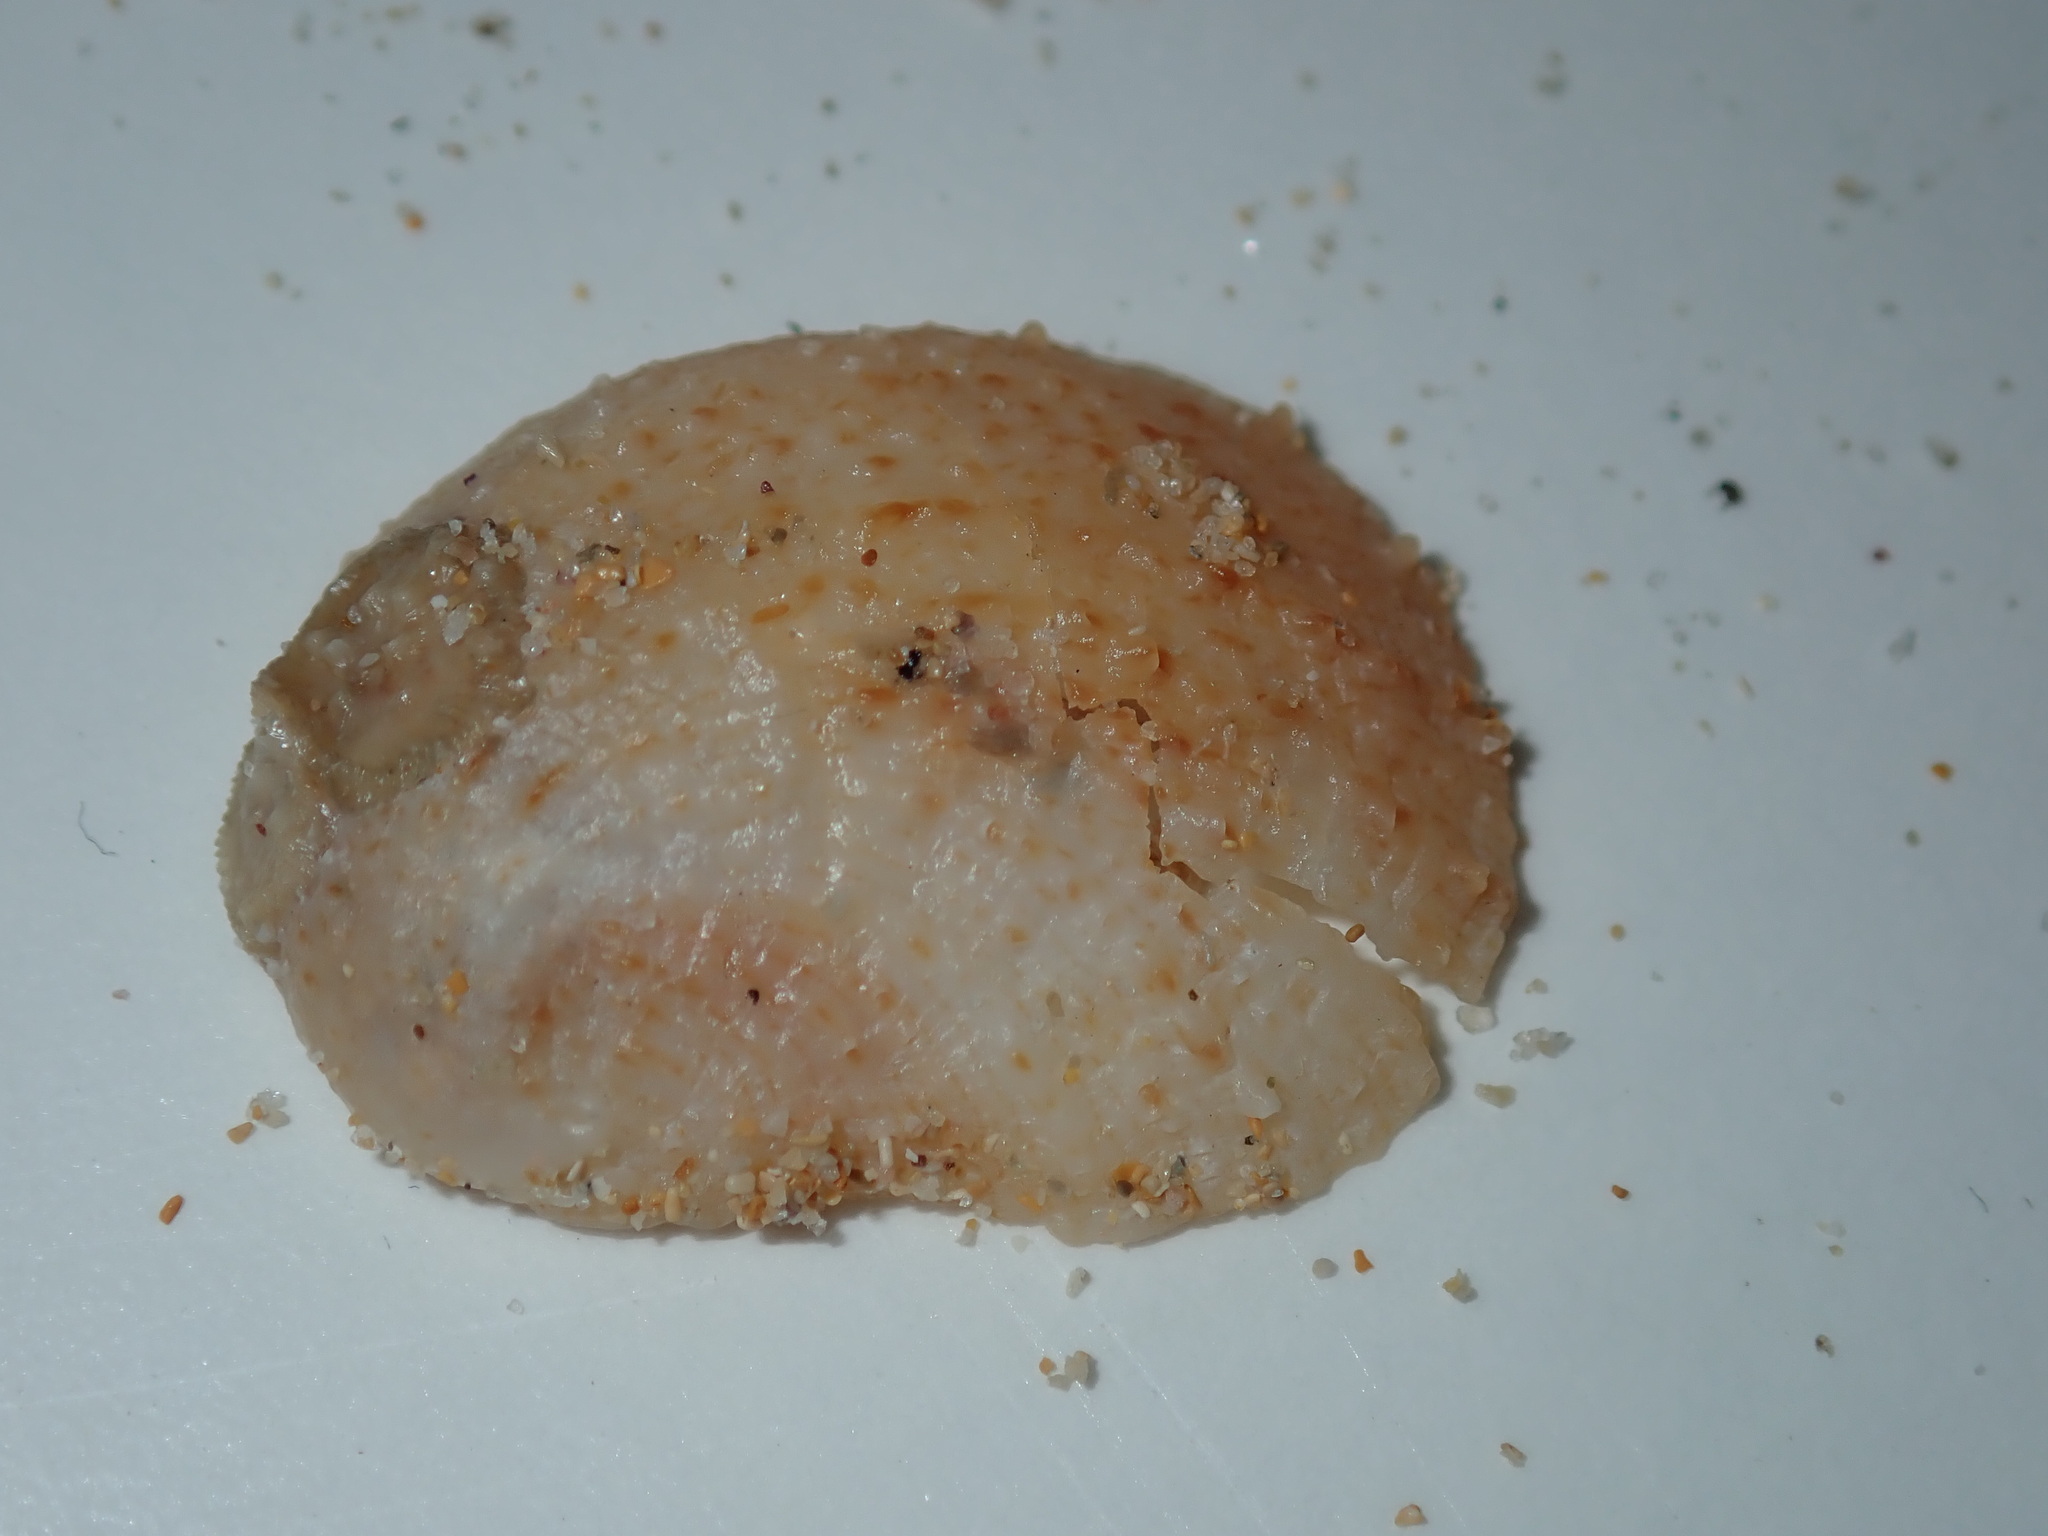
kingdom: Animalia
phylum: Mollusca
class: Gastropoda
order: Littorinimorpha
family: Calyptraeidae
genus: Bostrycapulus
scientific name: Bostrycapulus pritzkeri
